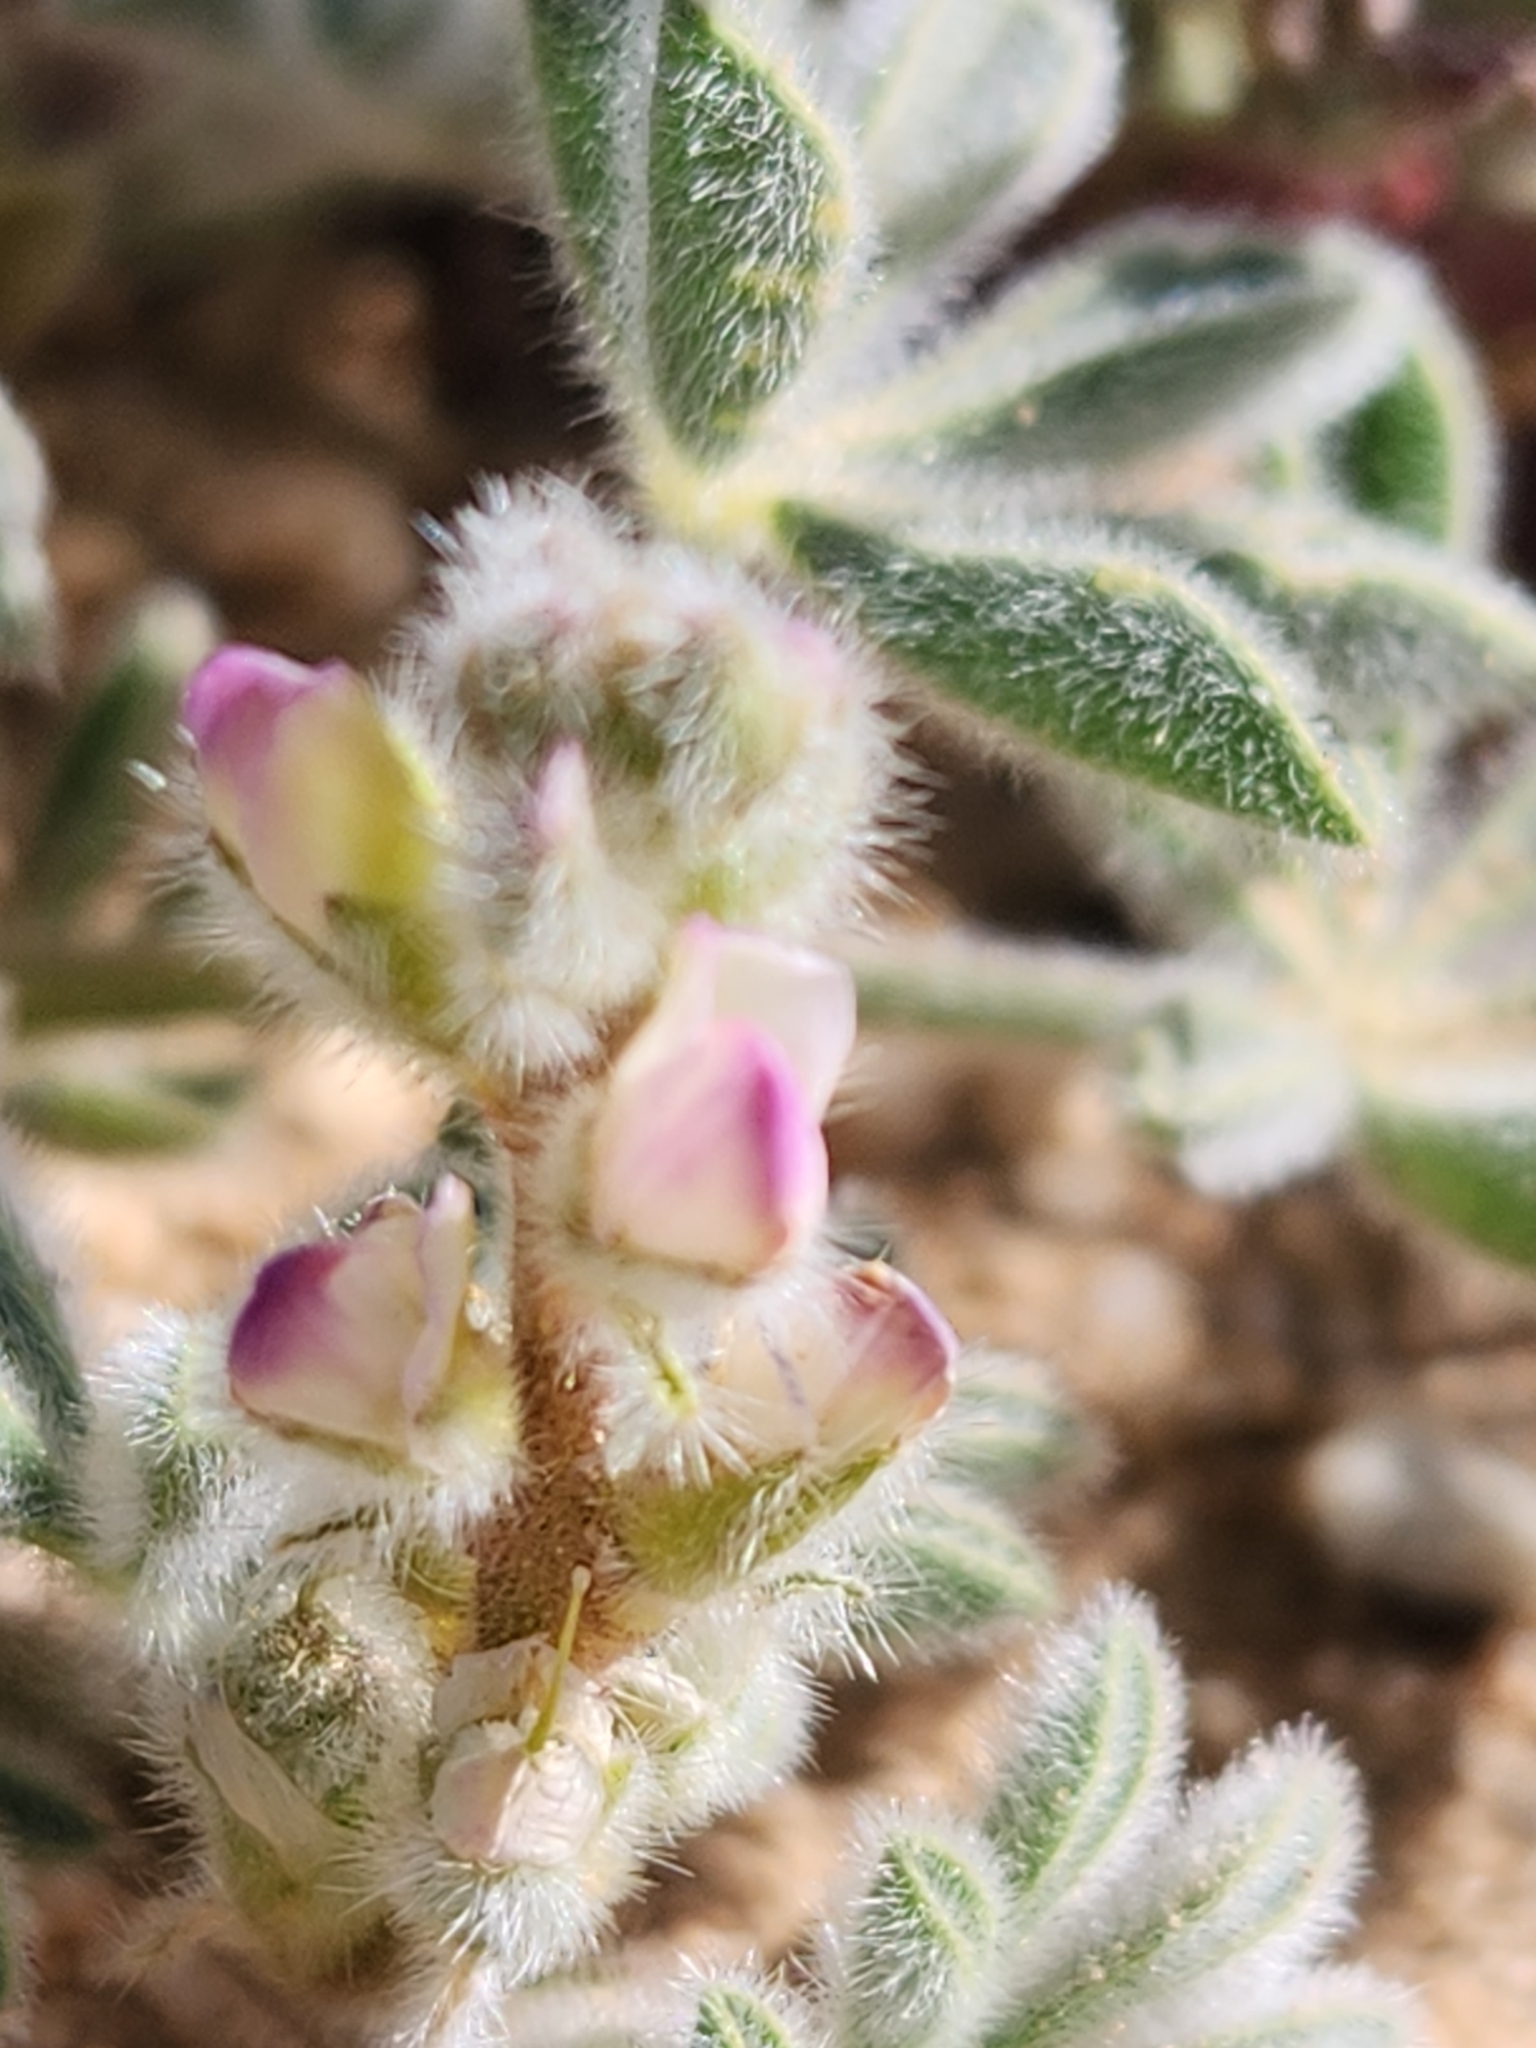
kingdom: Plantae
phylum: Tracheophyta
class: Magnoliopsida
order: Fabales
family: Fabaceae
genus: Lupinus
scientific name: Lupinus concinnus
